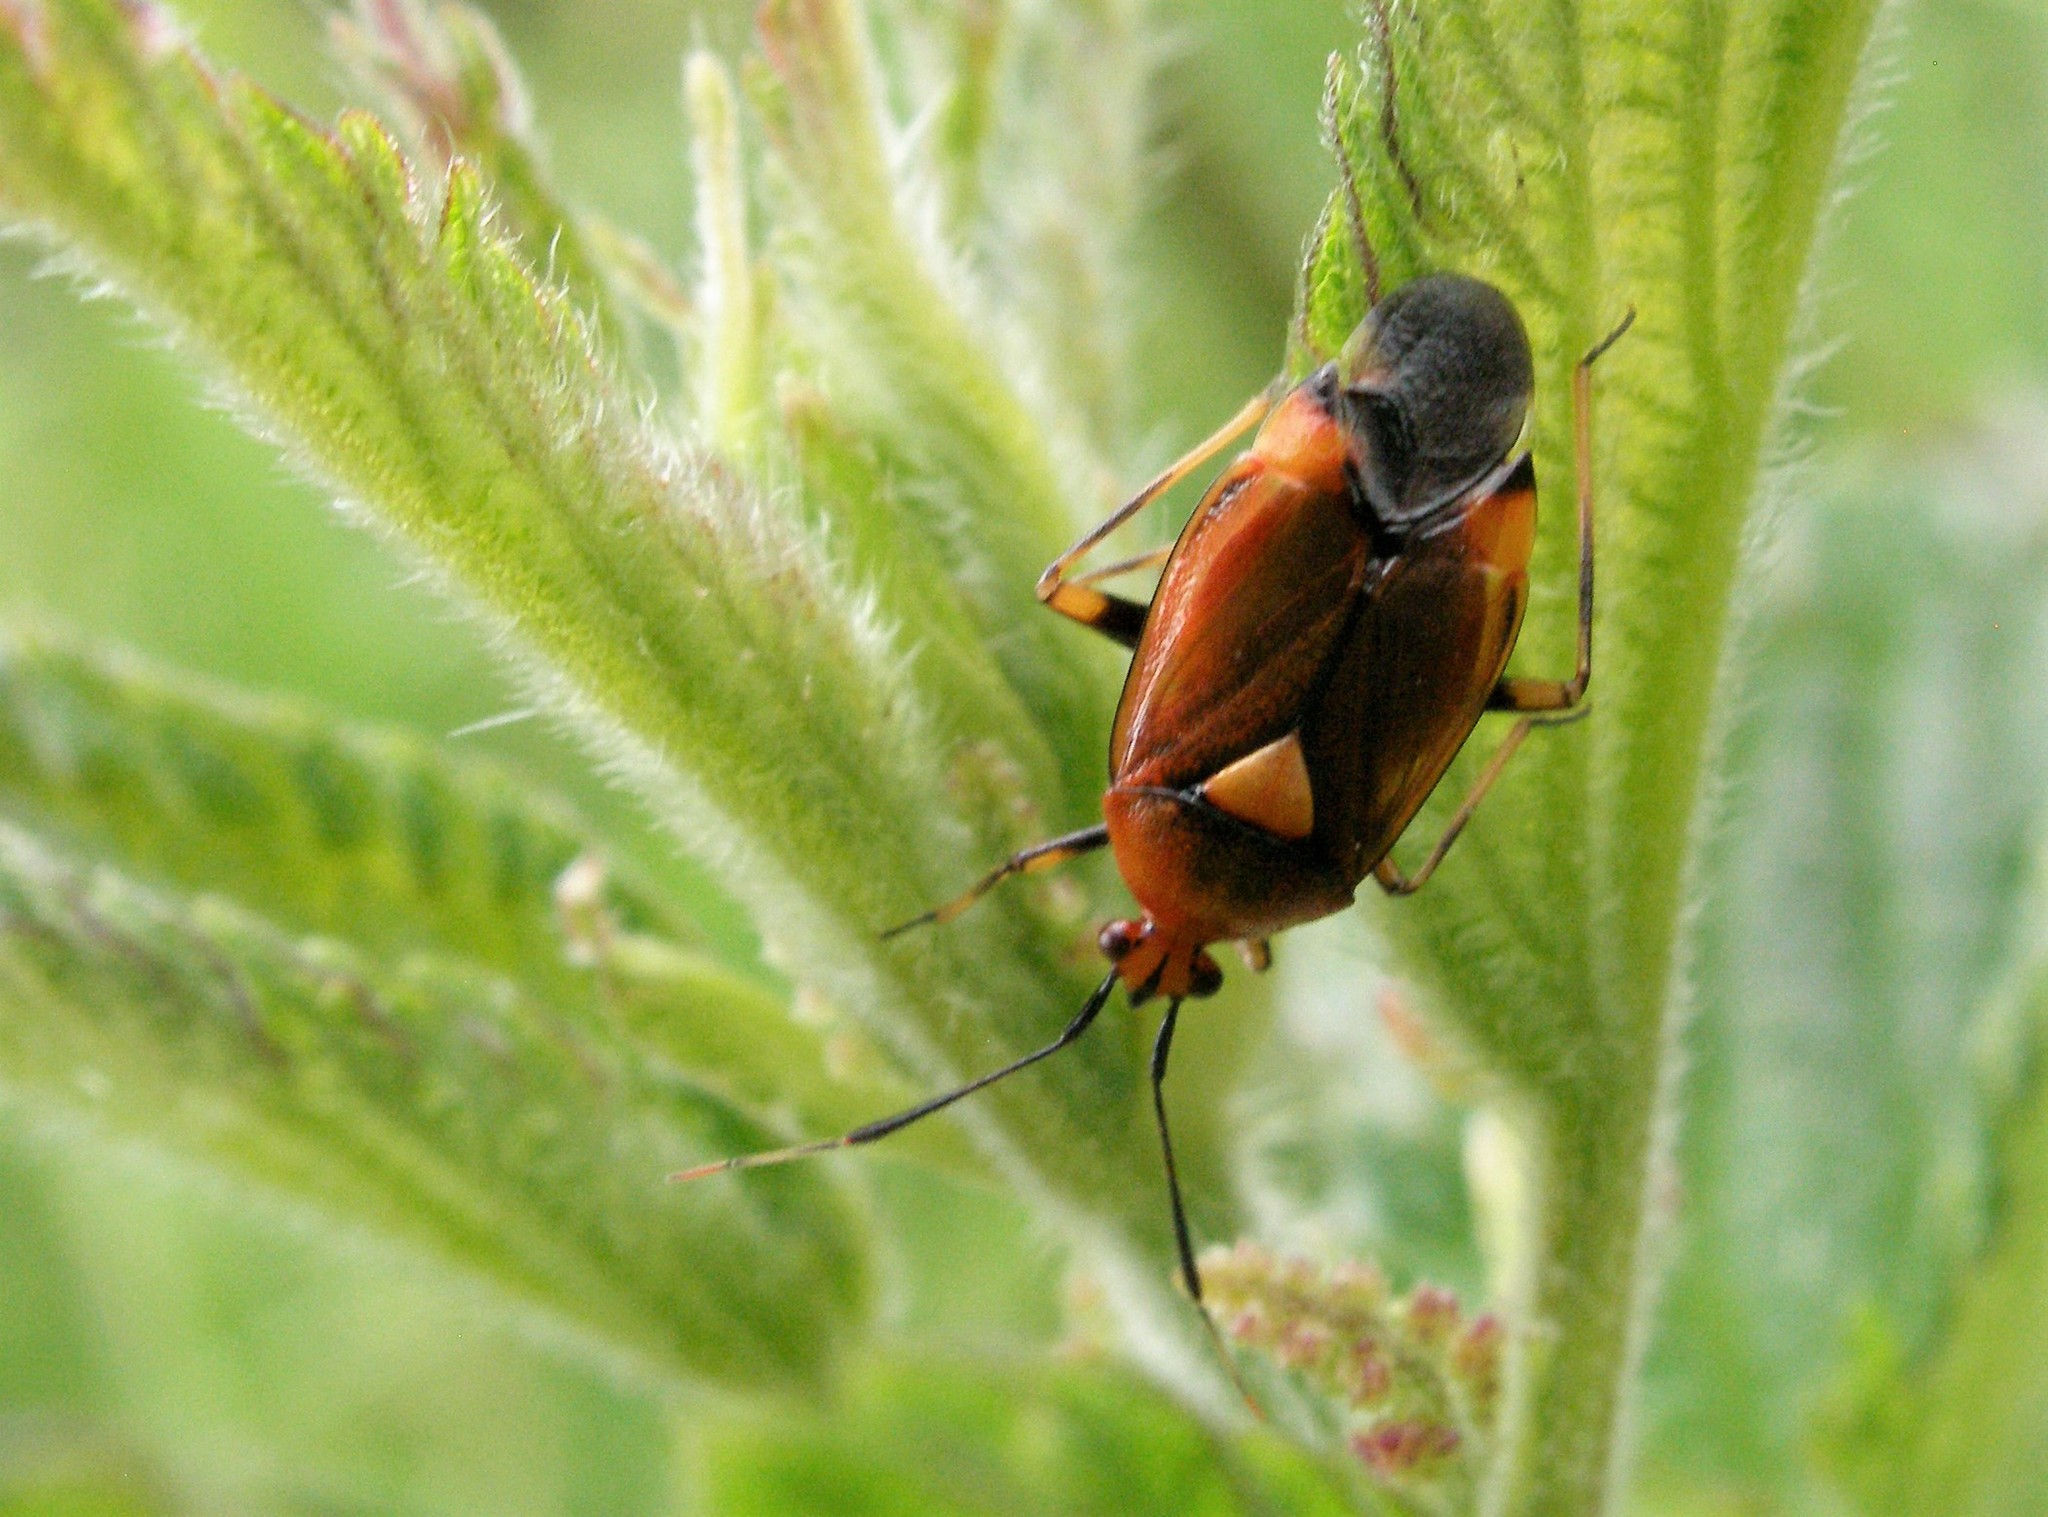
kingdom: Animalia
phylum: Arthropoda
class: Insecta
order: Hemiptera
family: Miridae
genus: Deraeocoris
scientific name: Deraeocoris ruber
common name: Plant bug
